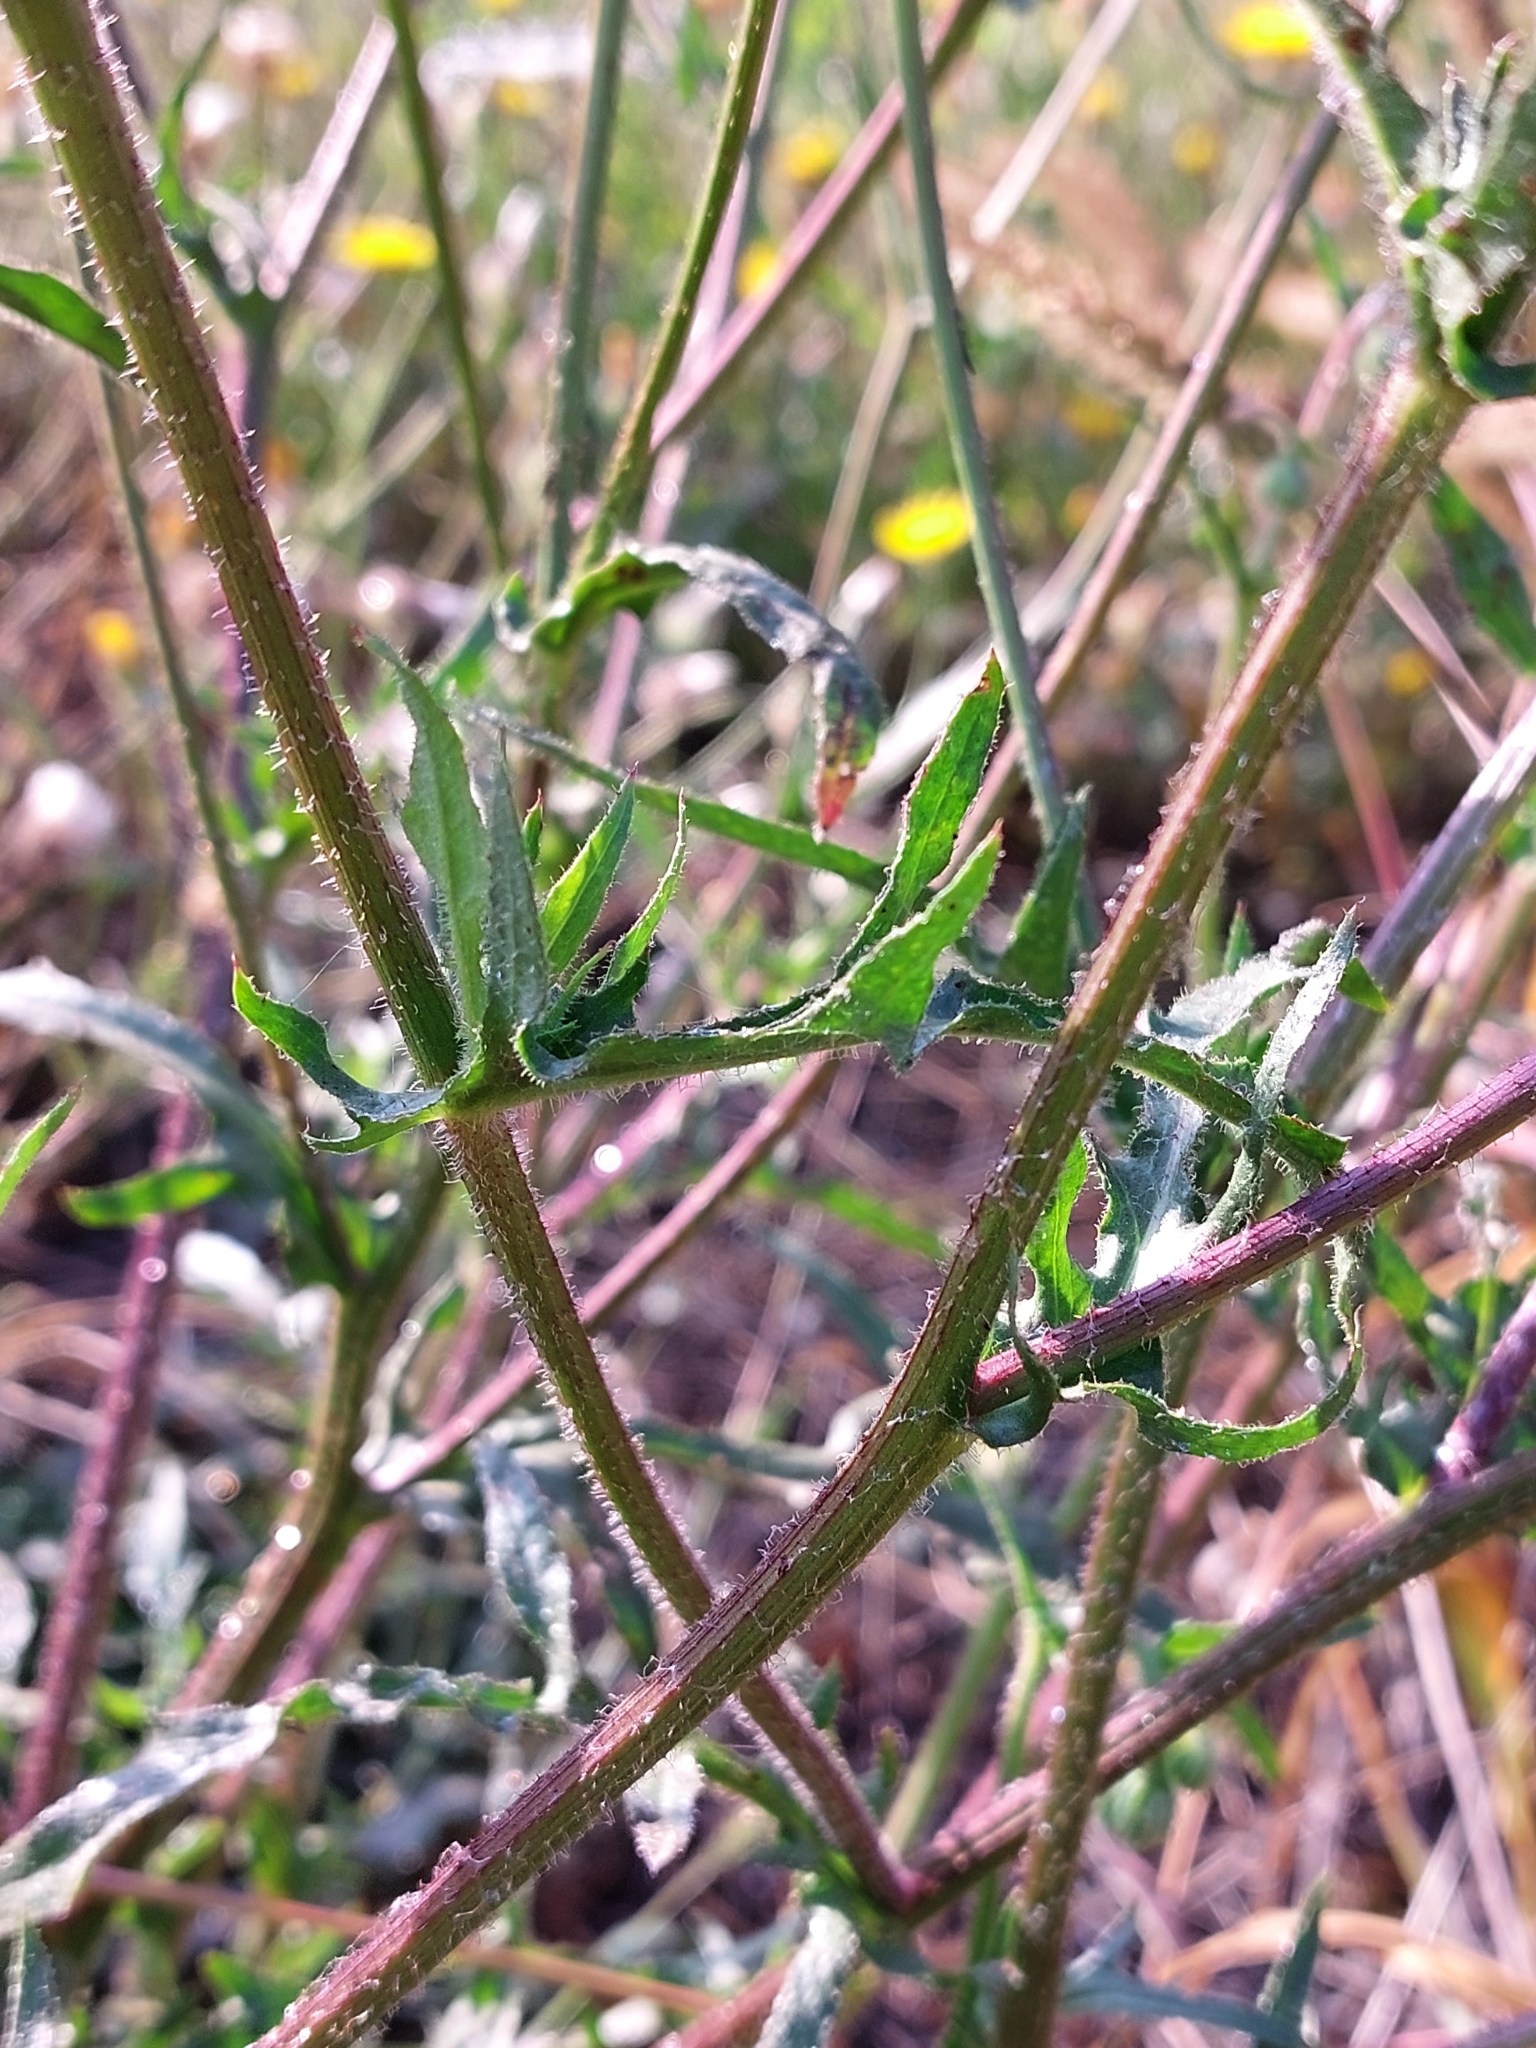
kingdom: Plantae
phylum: Tracheophyta
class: Magnoliopsida
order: Asterales
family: Asteraceae
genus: Crepis
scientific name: Crepis foetida
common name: Stinking hawk's-beard
